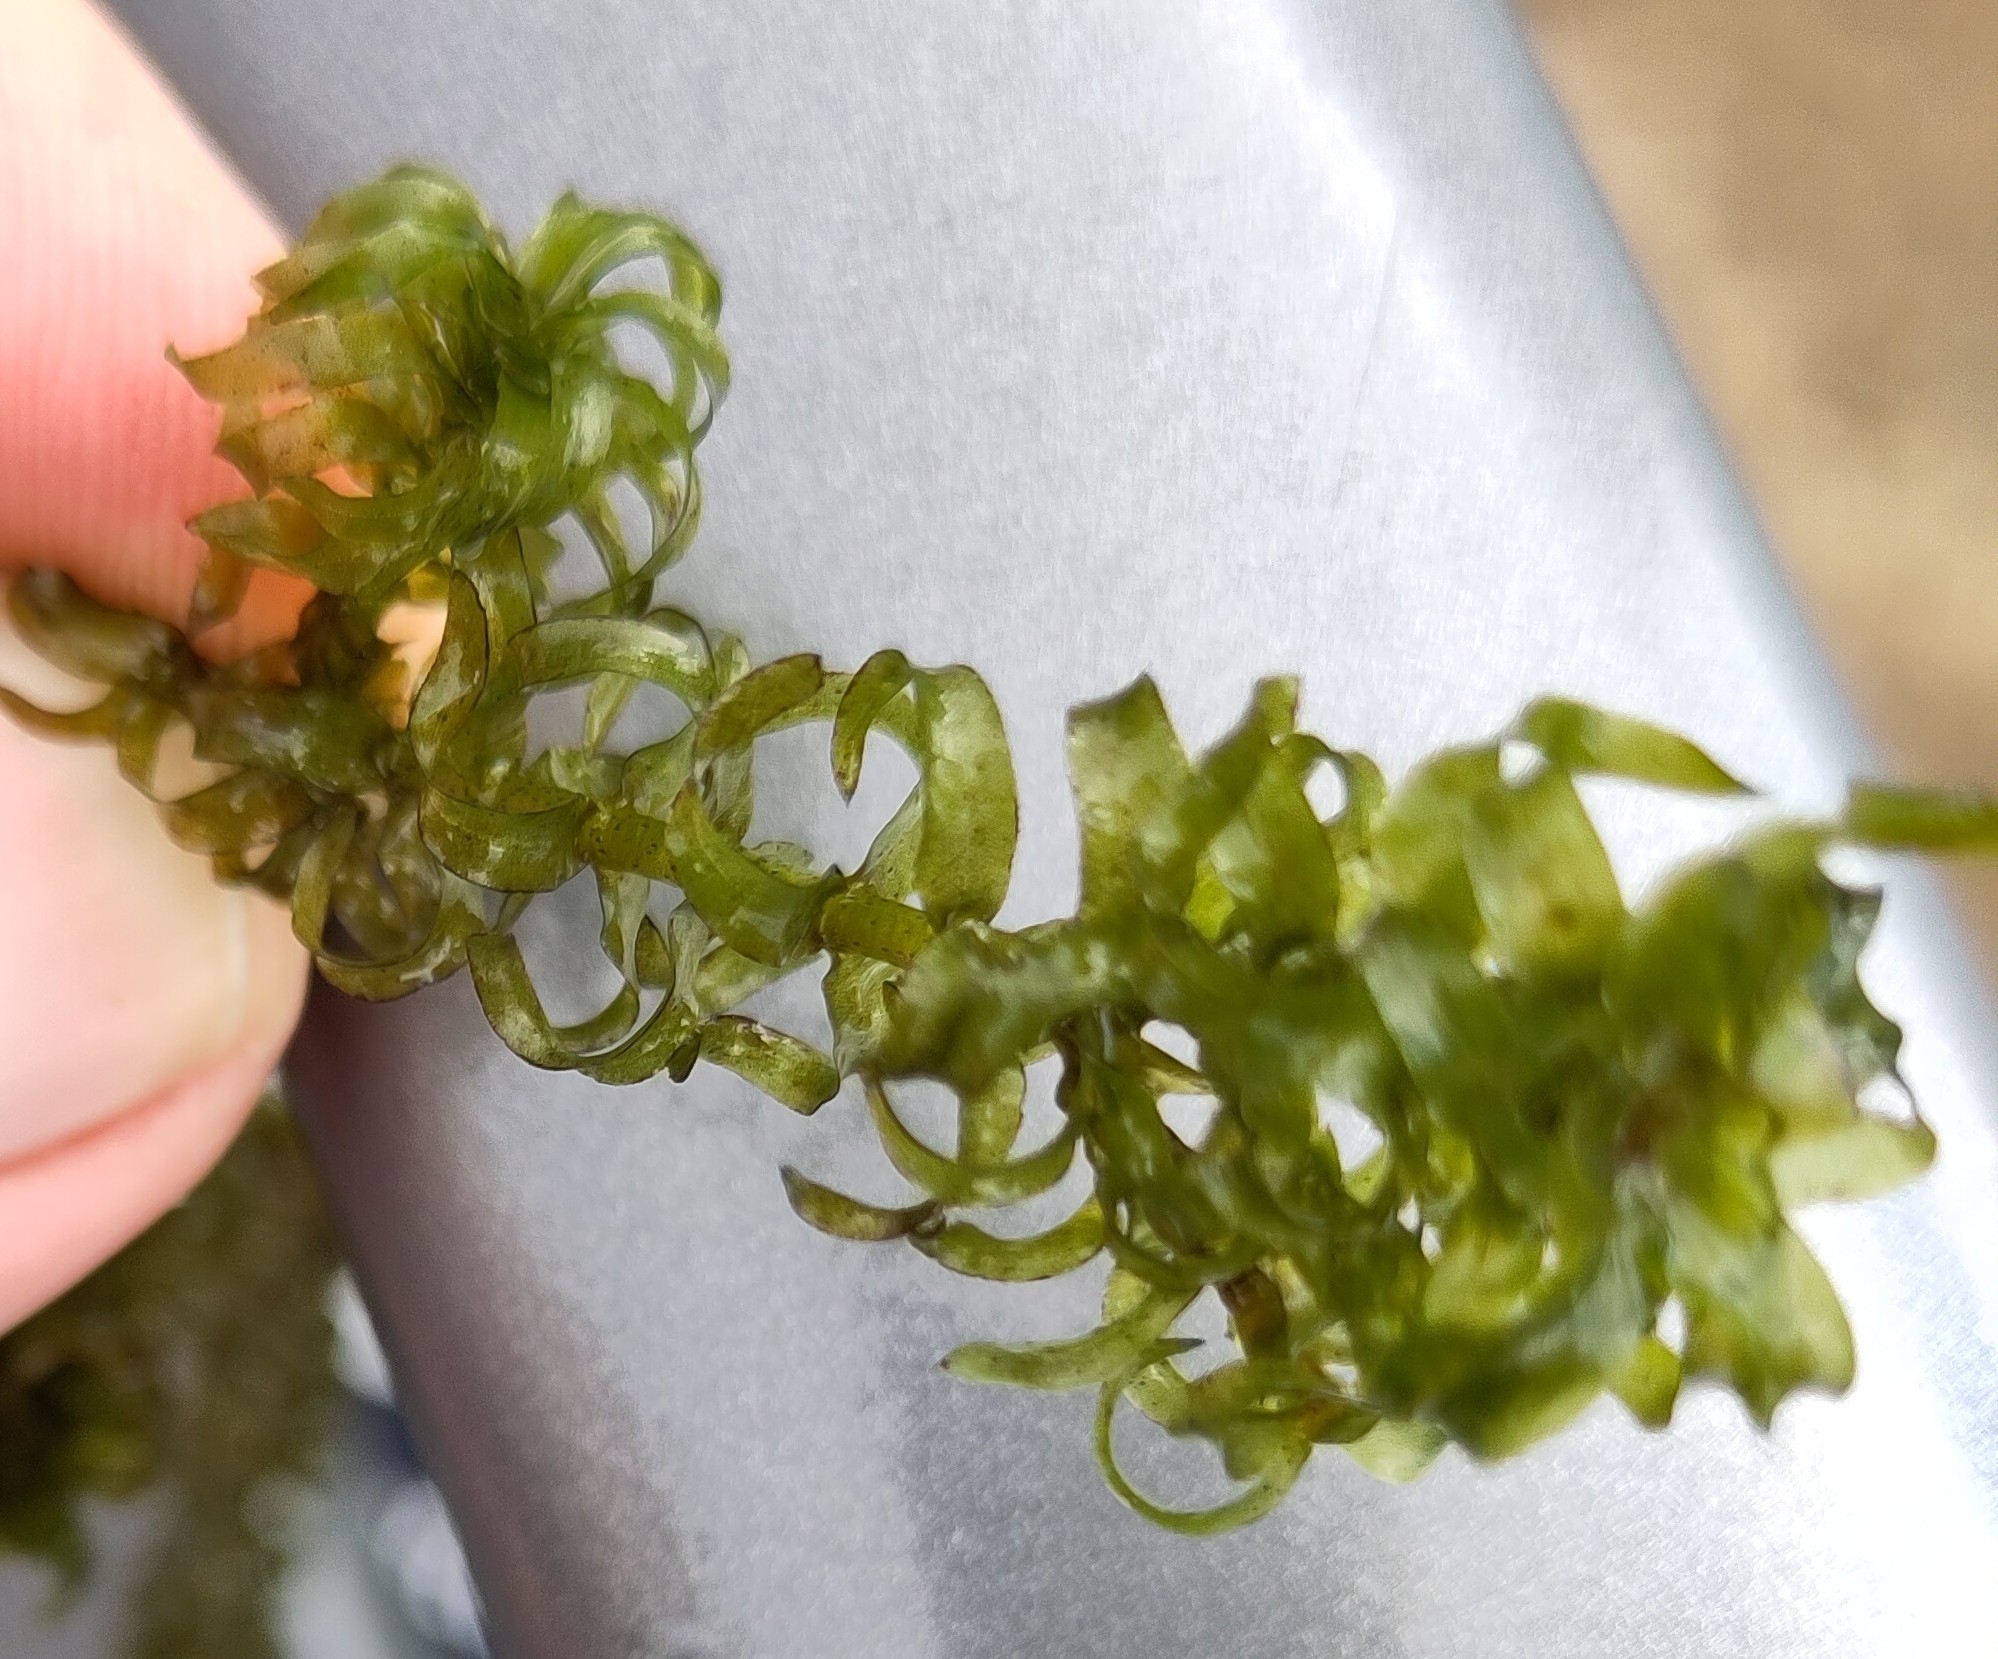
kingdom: Plantae
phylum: Tracheophyta
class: Liliopsida
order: Alismatales
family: Hydrocharitaceae
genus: Elodea
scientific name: Elodea nuttallii
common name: Nuttall's waterweed
